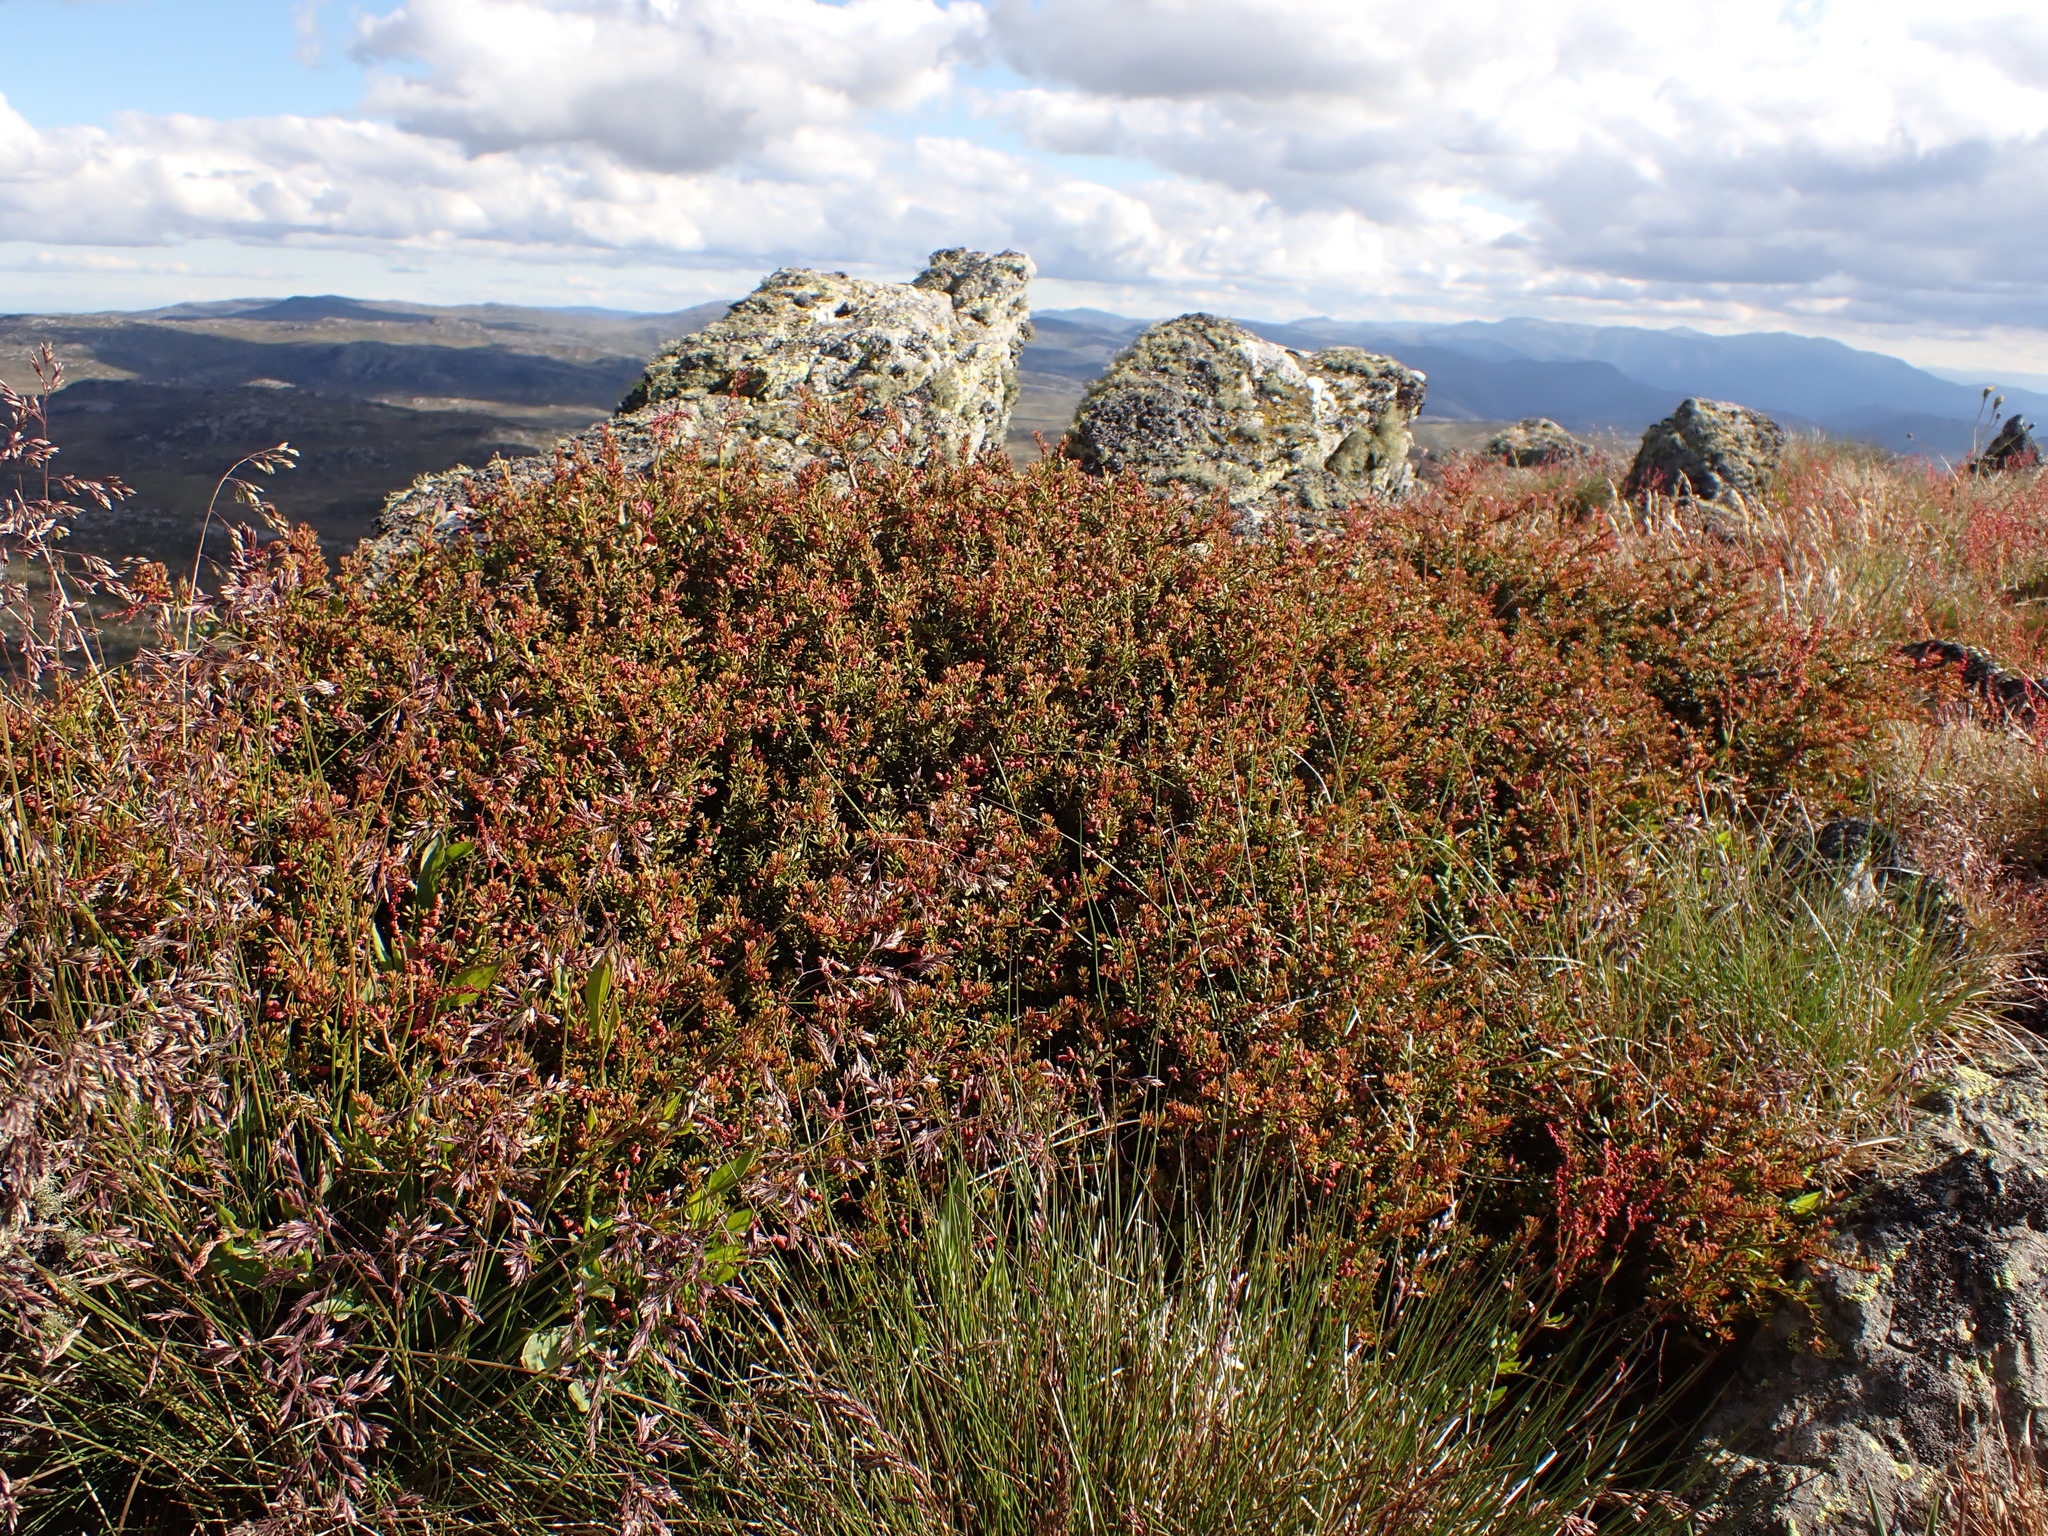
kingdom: Plantae
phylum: Tracheophyta
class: Pinopsida
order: Pinales
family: Podocarpaceae
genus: Podocarpus
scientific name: Podocarpus lawrencei
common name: Mountain plum pine
